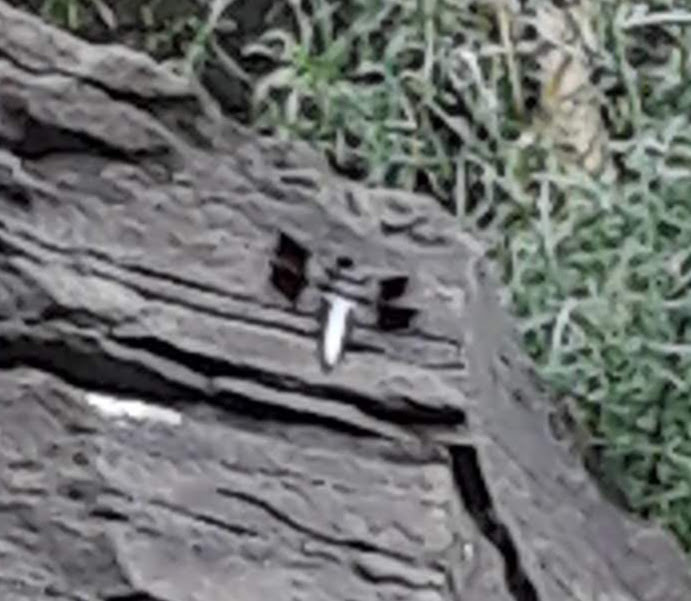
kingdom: Animalia
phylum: Arthropoda
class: Insecta
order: Odonata
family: Libellulidae
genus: Plathemis
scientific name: Plathemis lydia
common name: Common whitetail
